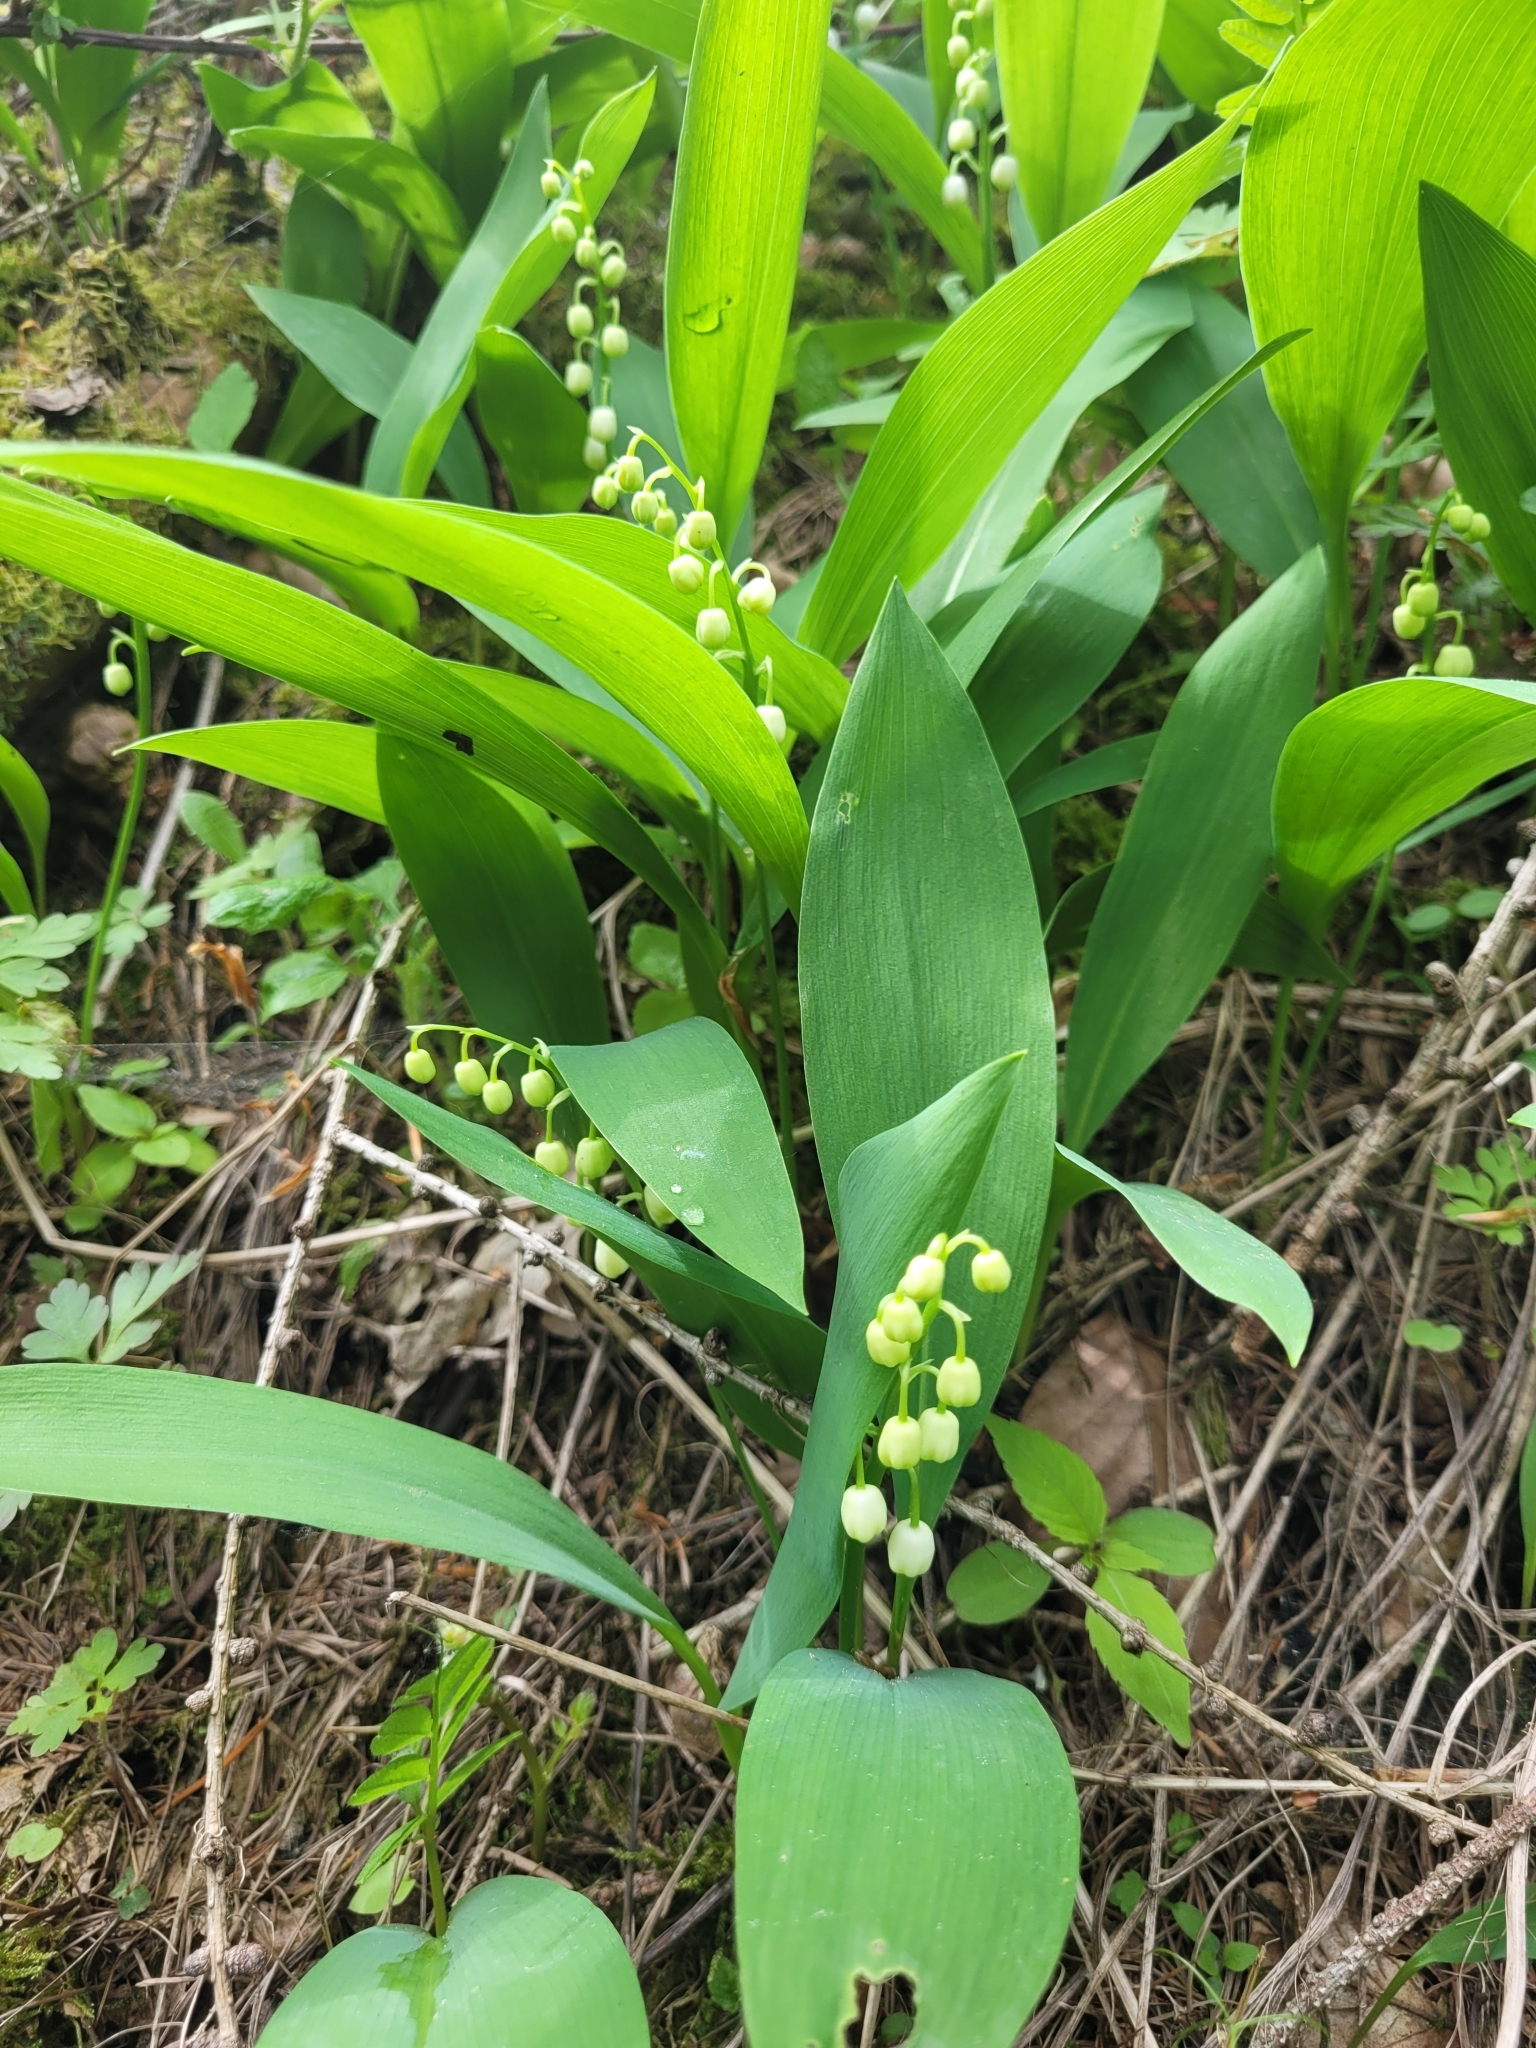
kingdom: Plantae
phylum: Tracheophyta
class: Liliopsida
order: Asparagales
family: Asparagaceae
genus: Convallaria
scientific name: Convallaria majalis
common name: Lily-of-the-valley
